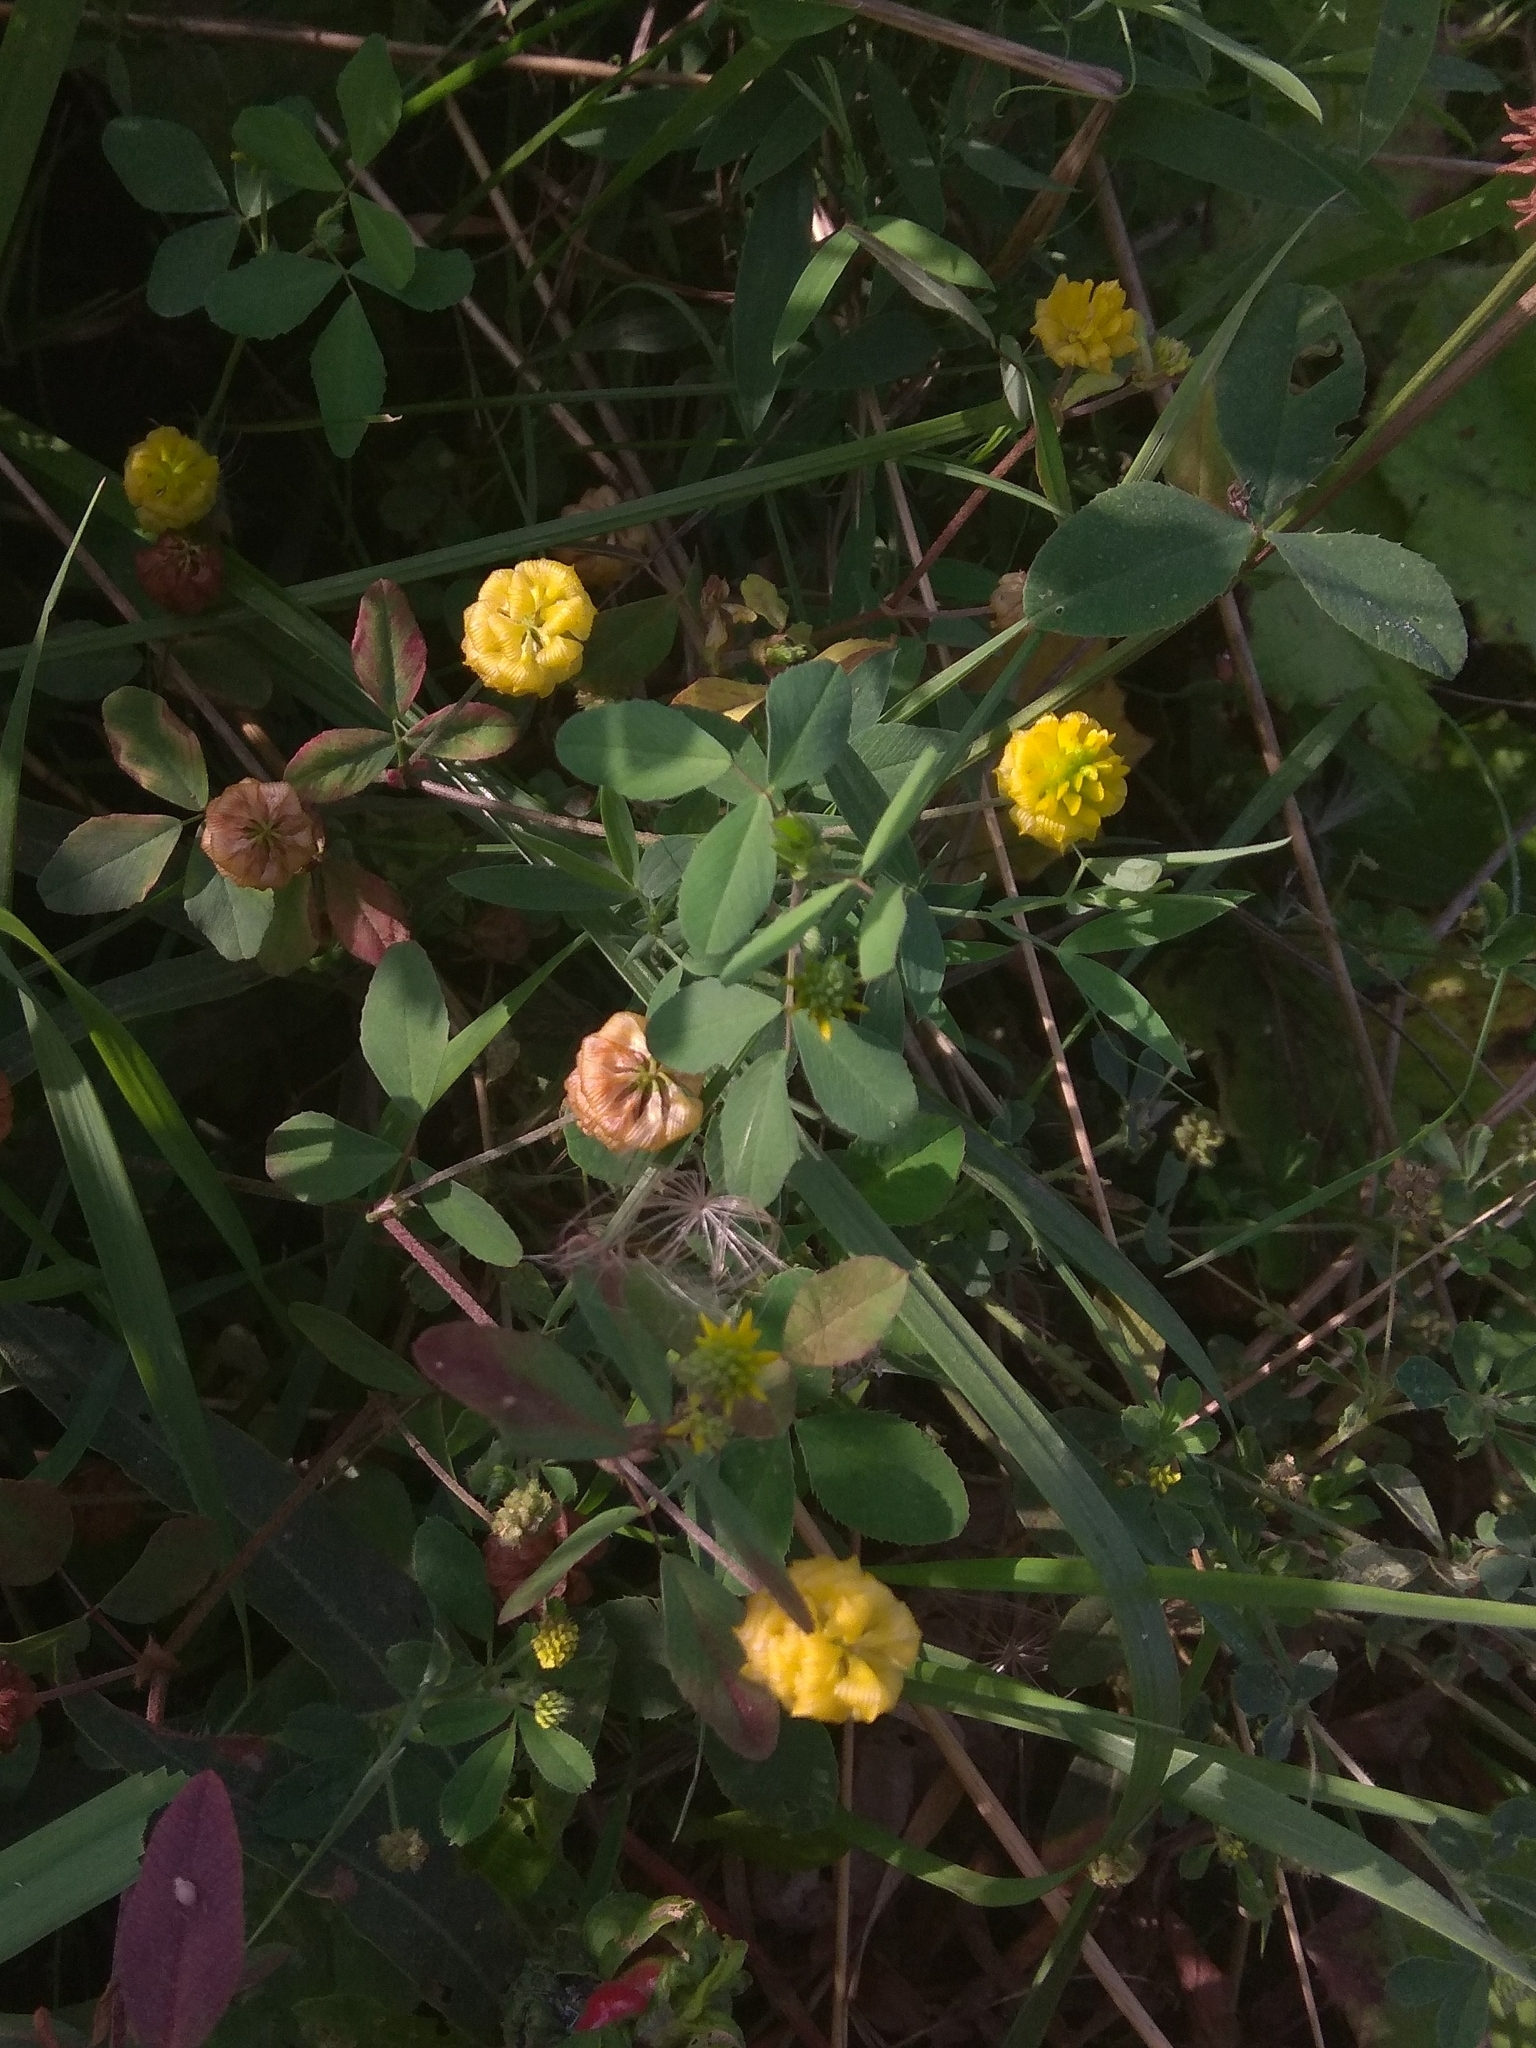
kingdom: Plantae
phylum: Tracheophyta
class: Magnoliopsida
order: Fabales
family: Fabaceae
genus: Trifolium
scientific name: Trifolium campestre
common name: Field clover
